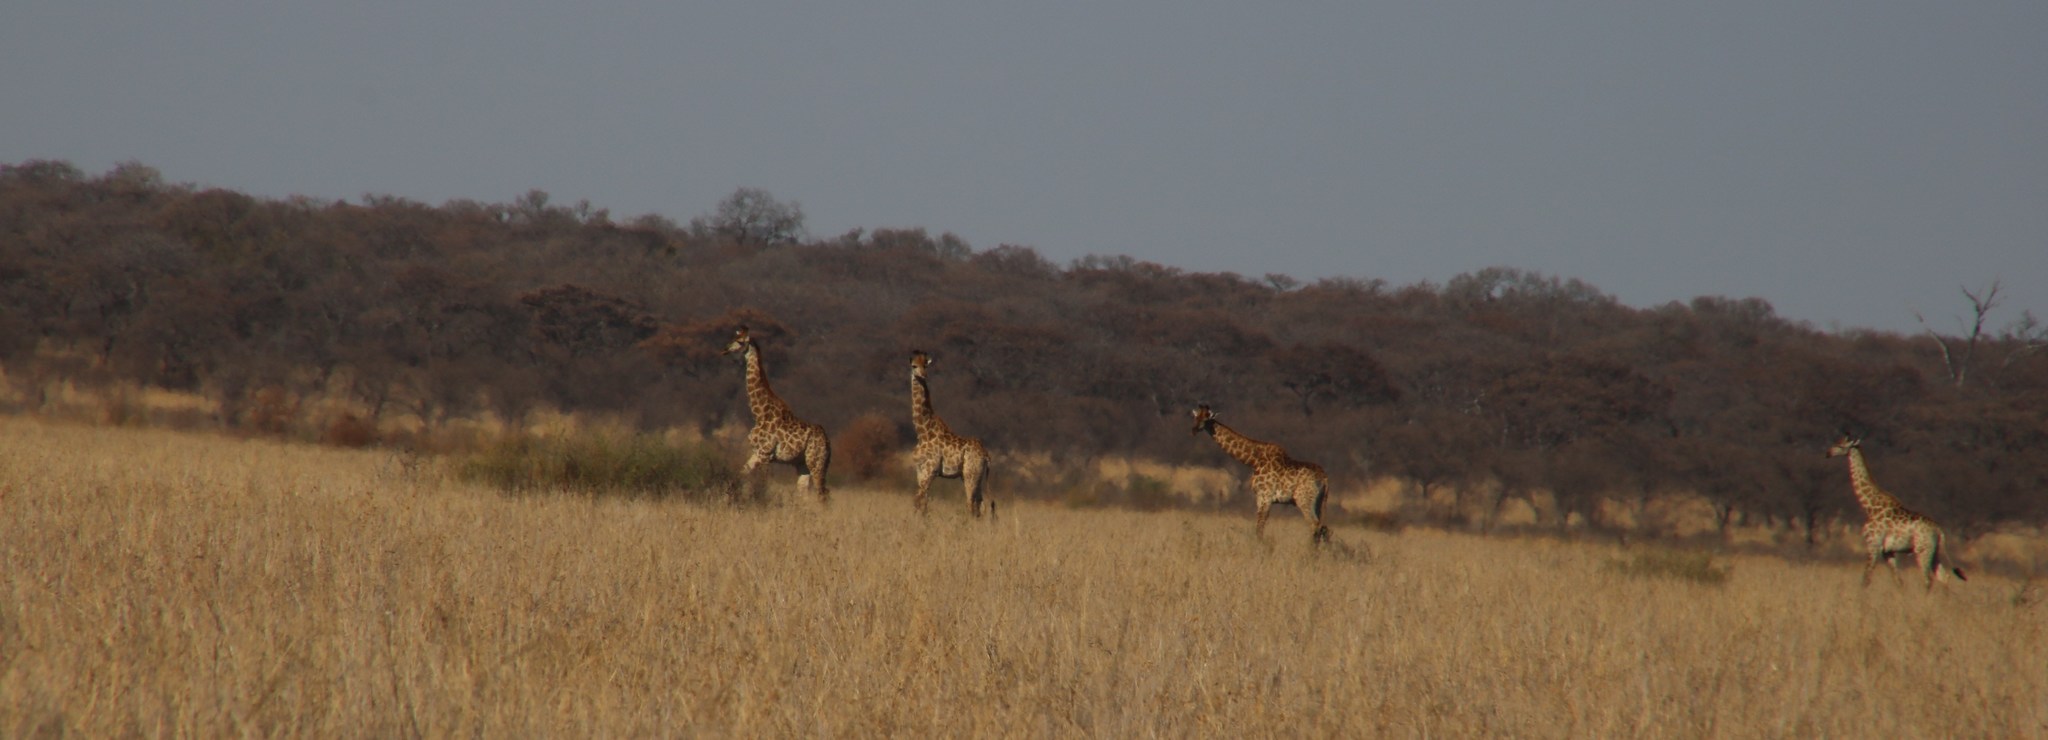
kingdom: Animalia
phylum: Chordata
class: Mammalia
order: Artiodactyla
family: Giraffidae
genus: Giraffa
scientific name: Giraffa giraffa
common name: Southern giraffe
